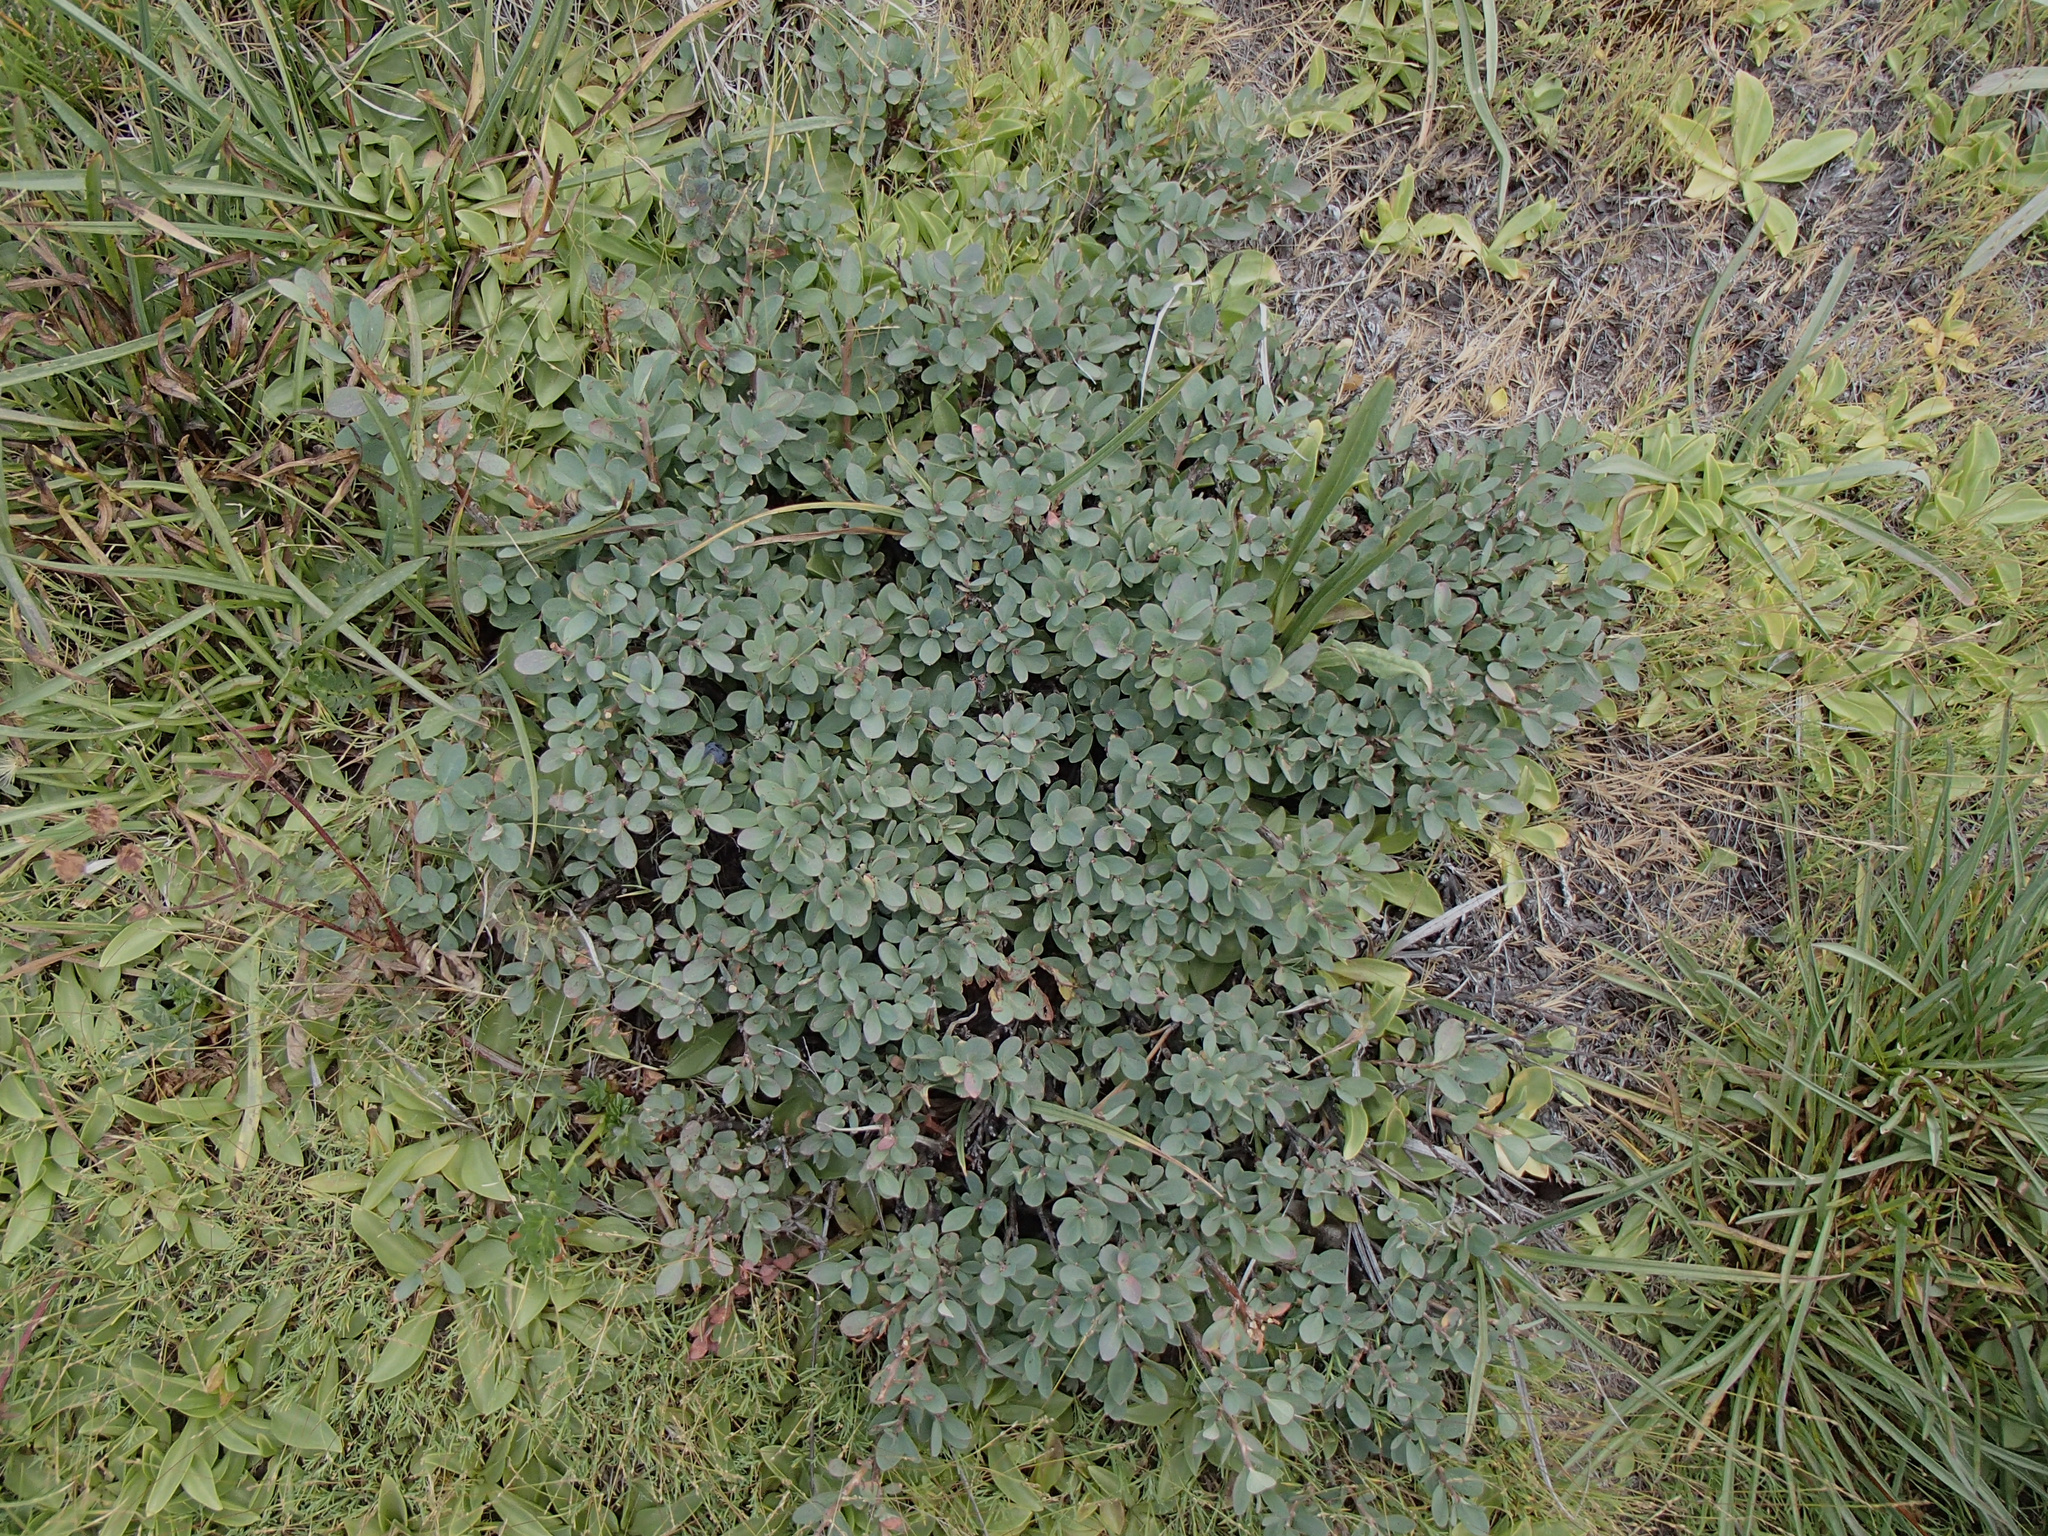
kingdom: Plantae
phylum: Tracheophyta
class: Magnoliopsida
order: Ericales
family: Ericaceae
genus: Vaccinium
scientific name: Vaccinium uliginosum
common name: Bog bilberry
